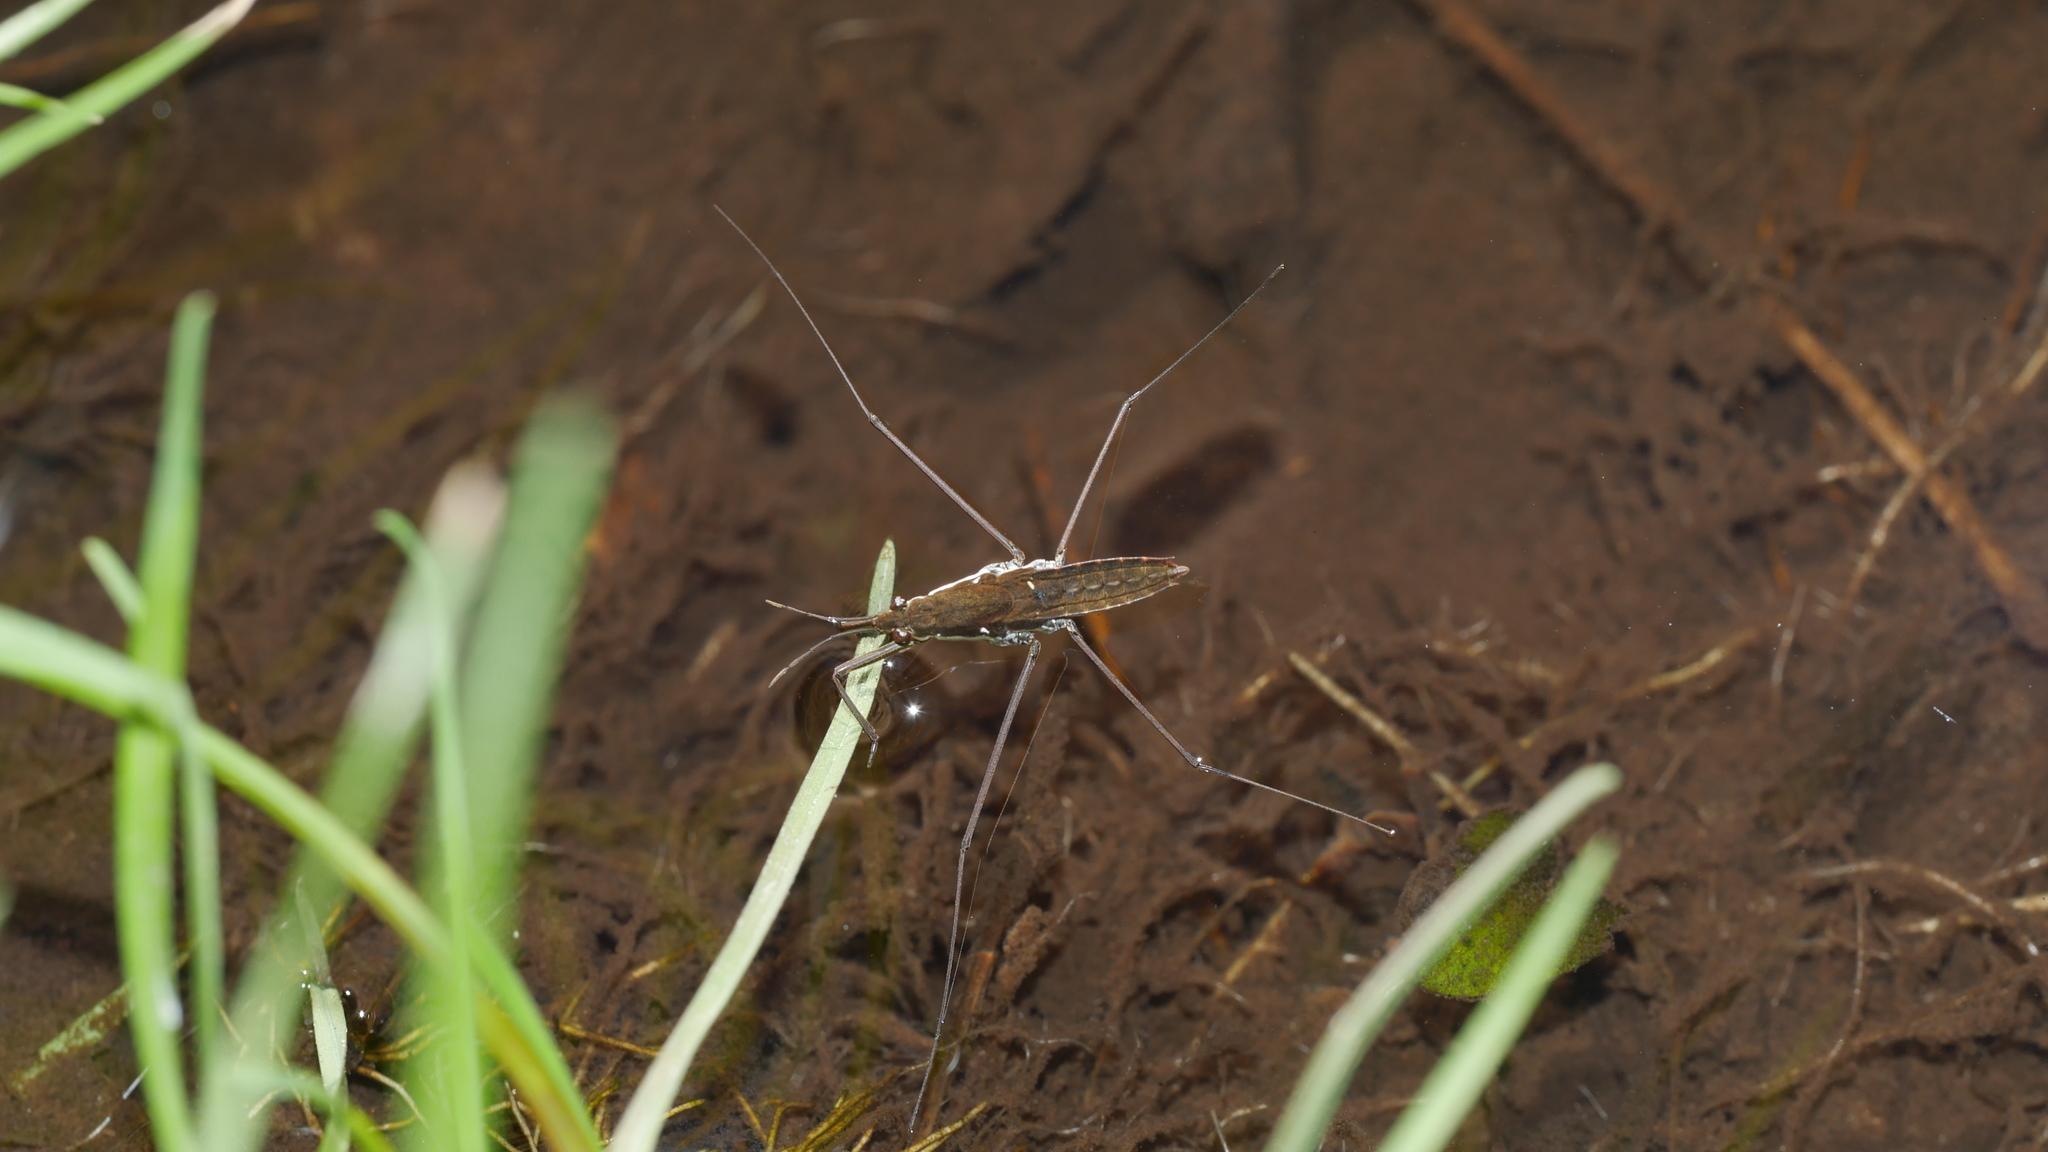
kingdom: Animalia
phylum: Arthropoda
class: Insecta
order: Hemiptera
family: Gerridae
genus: Aquarius
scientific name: Aquarius
